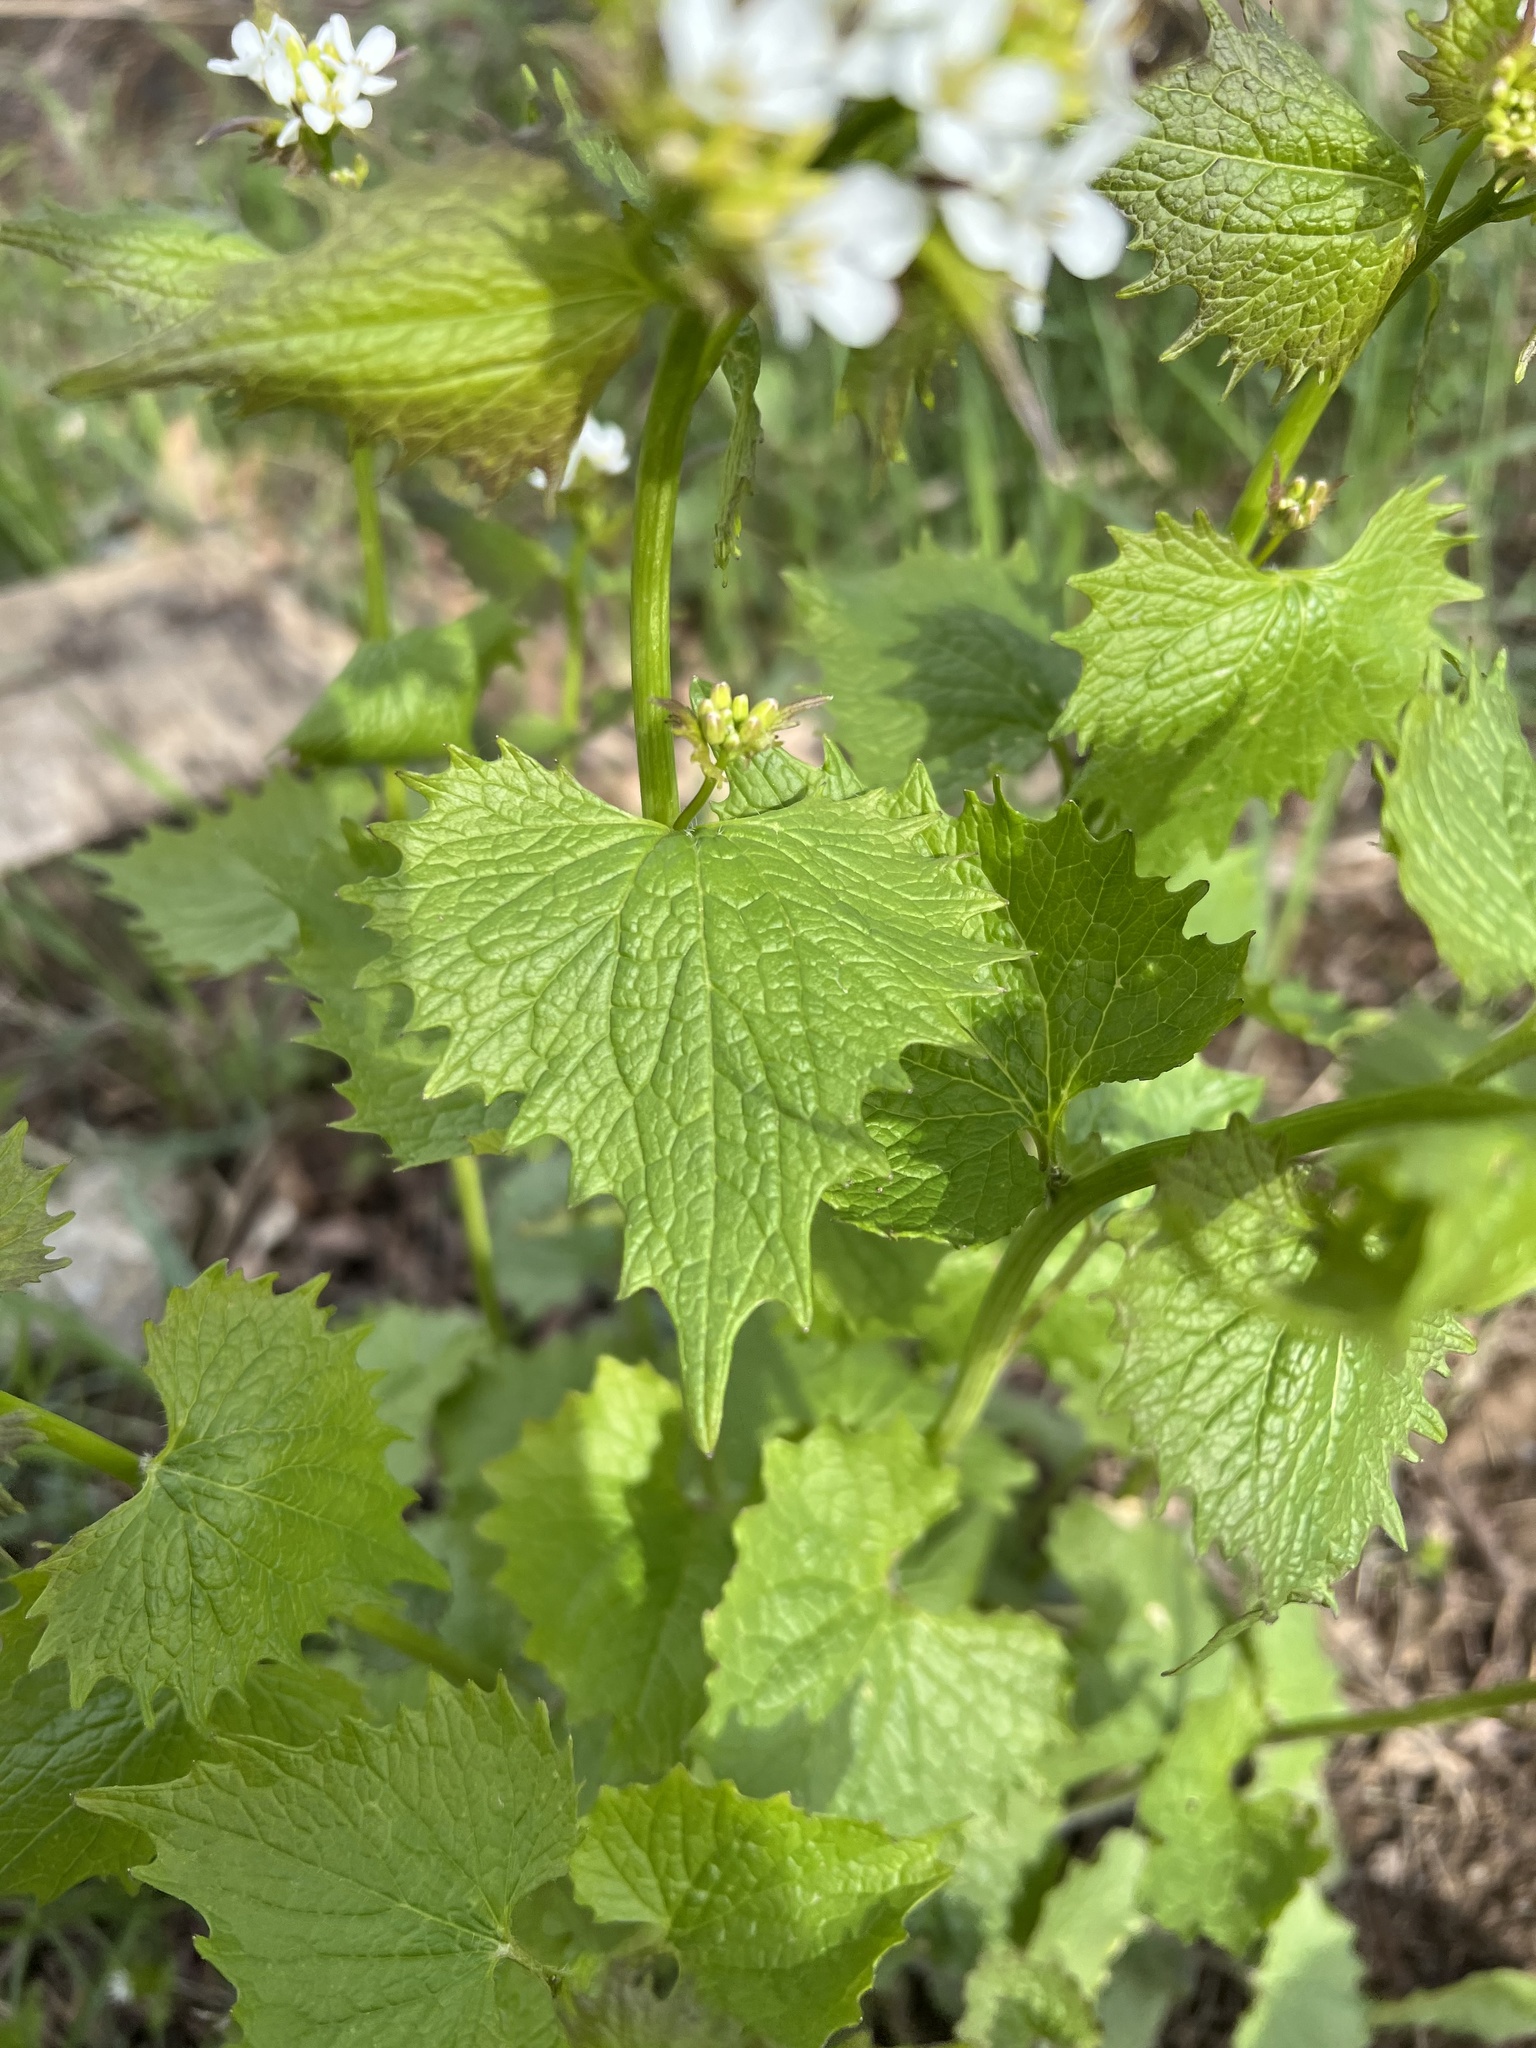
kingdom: Plantae
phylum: Tracheophyta
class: Magnoliopsida
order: Brassicales
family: Brassicaceae
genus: Alliaria
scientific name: Alliaria petiolata
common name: Garlic mustard
